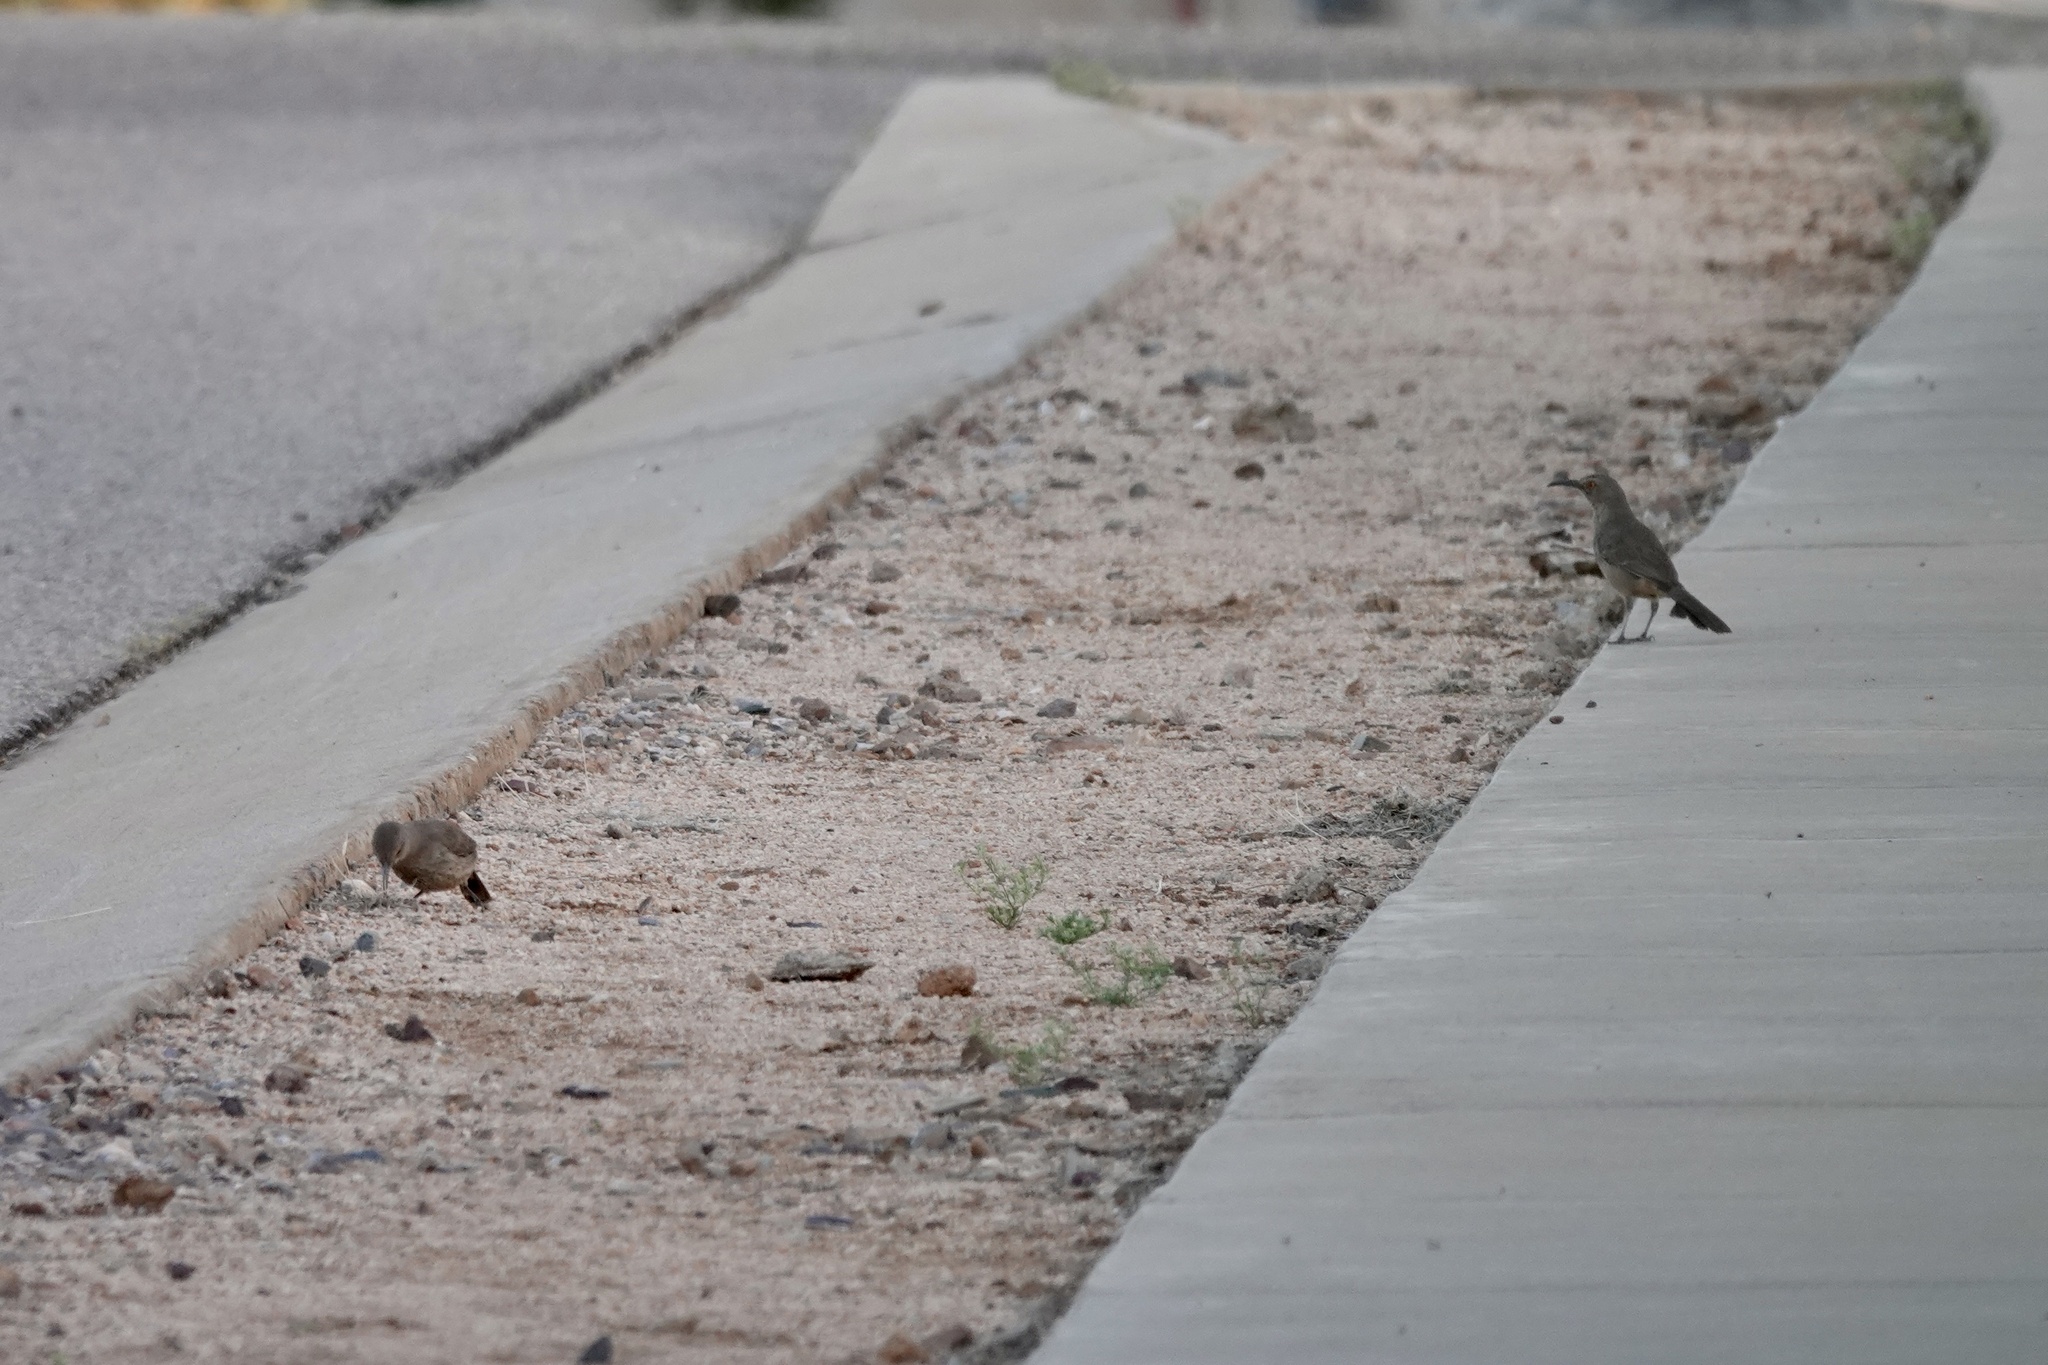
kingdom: Animalia
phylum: Chordata
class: Aves
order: Passeriformes
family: Mimidae
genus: Toxostoma
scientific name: Toxostoma curvirostre
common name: Curve-billed thrasher
